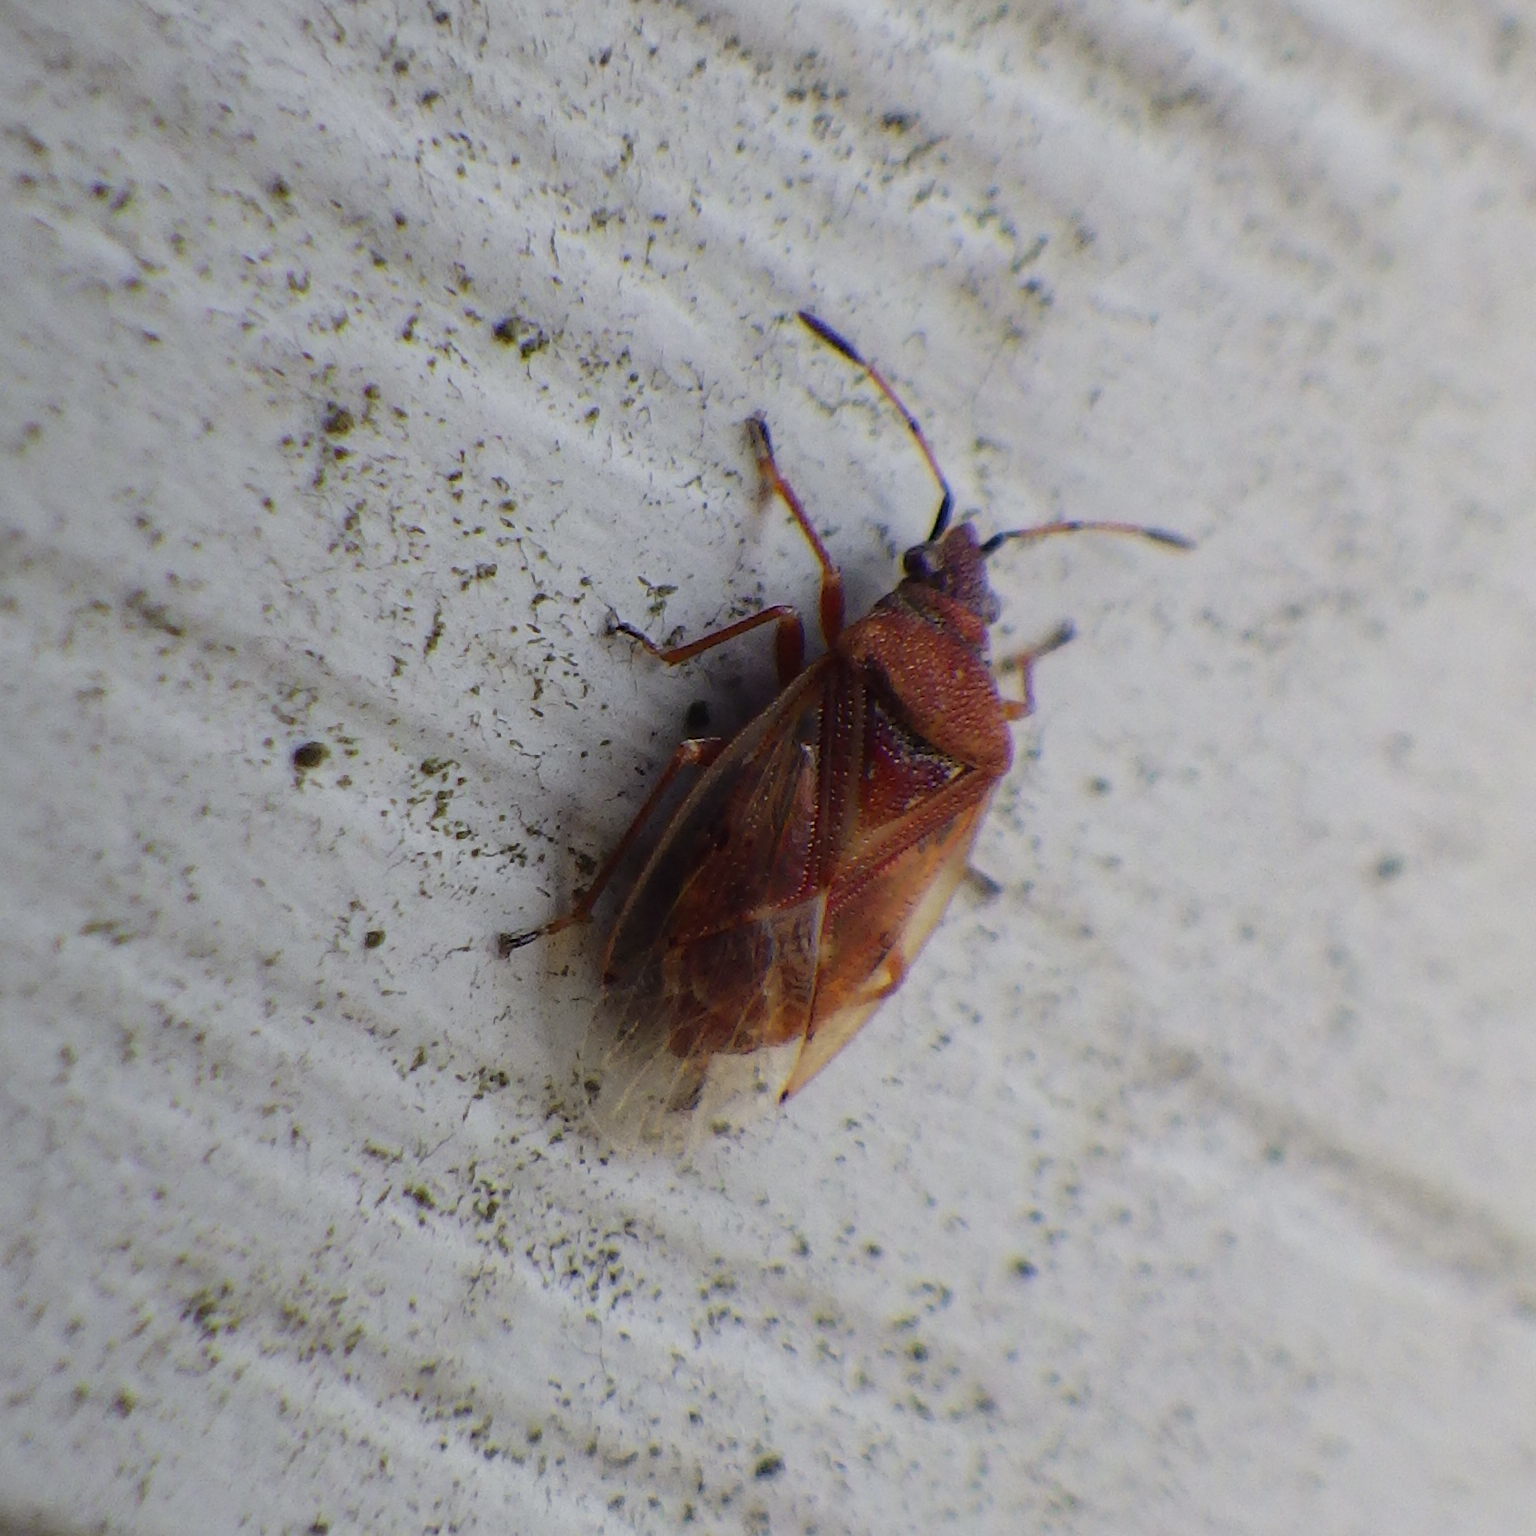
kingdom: Animalia
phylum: Arthropoda
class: Insecta
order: Hemiptera
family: Lygaeidae
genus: Kleidocerys
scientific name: Kleidocerys resedae
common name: Birch catkin bug
